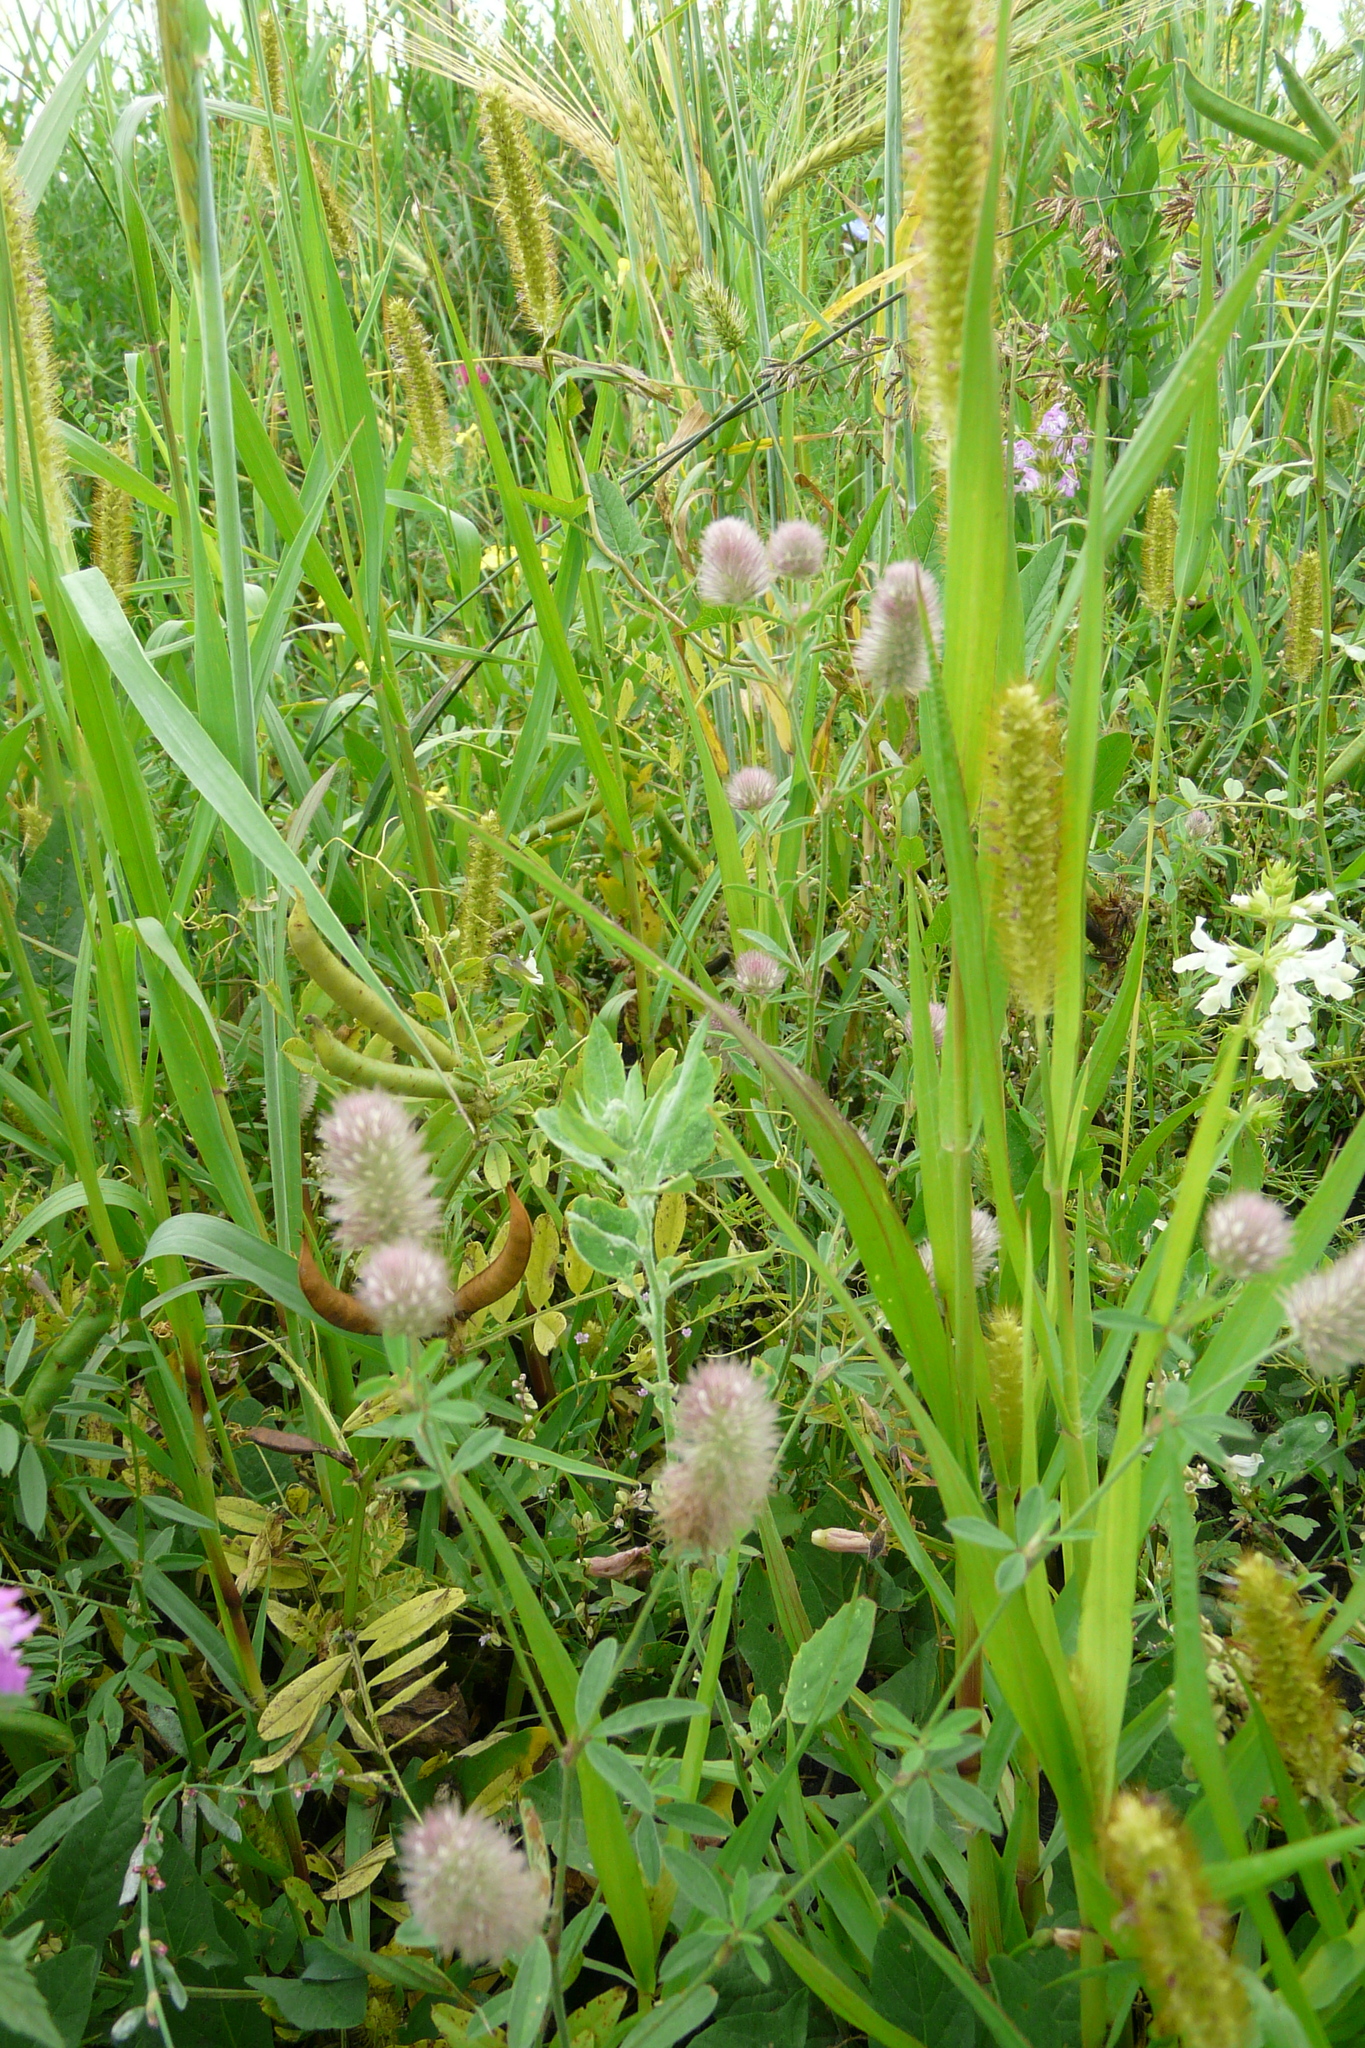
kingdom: Plantae
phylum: Tracheophyta
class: Magnoliopsida
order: Fabales
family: Fabaceae
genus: Trifolium
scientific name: Trifolium arvense
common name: Hare's-foot clover
